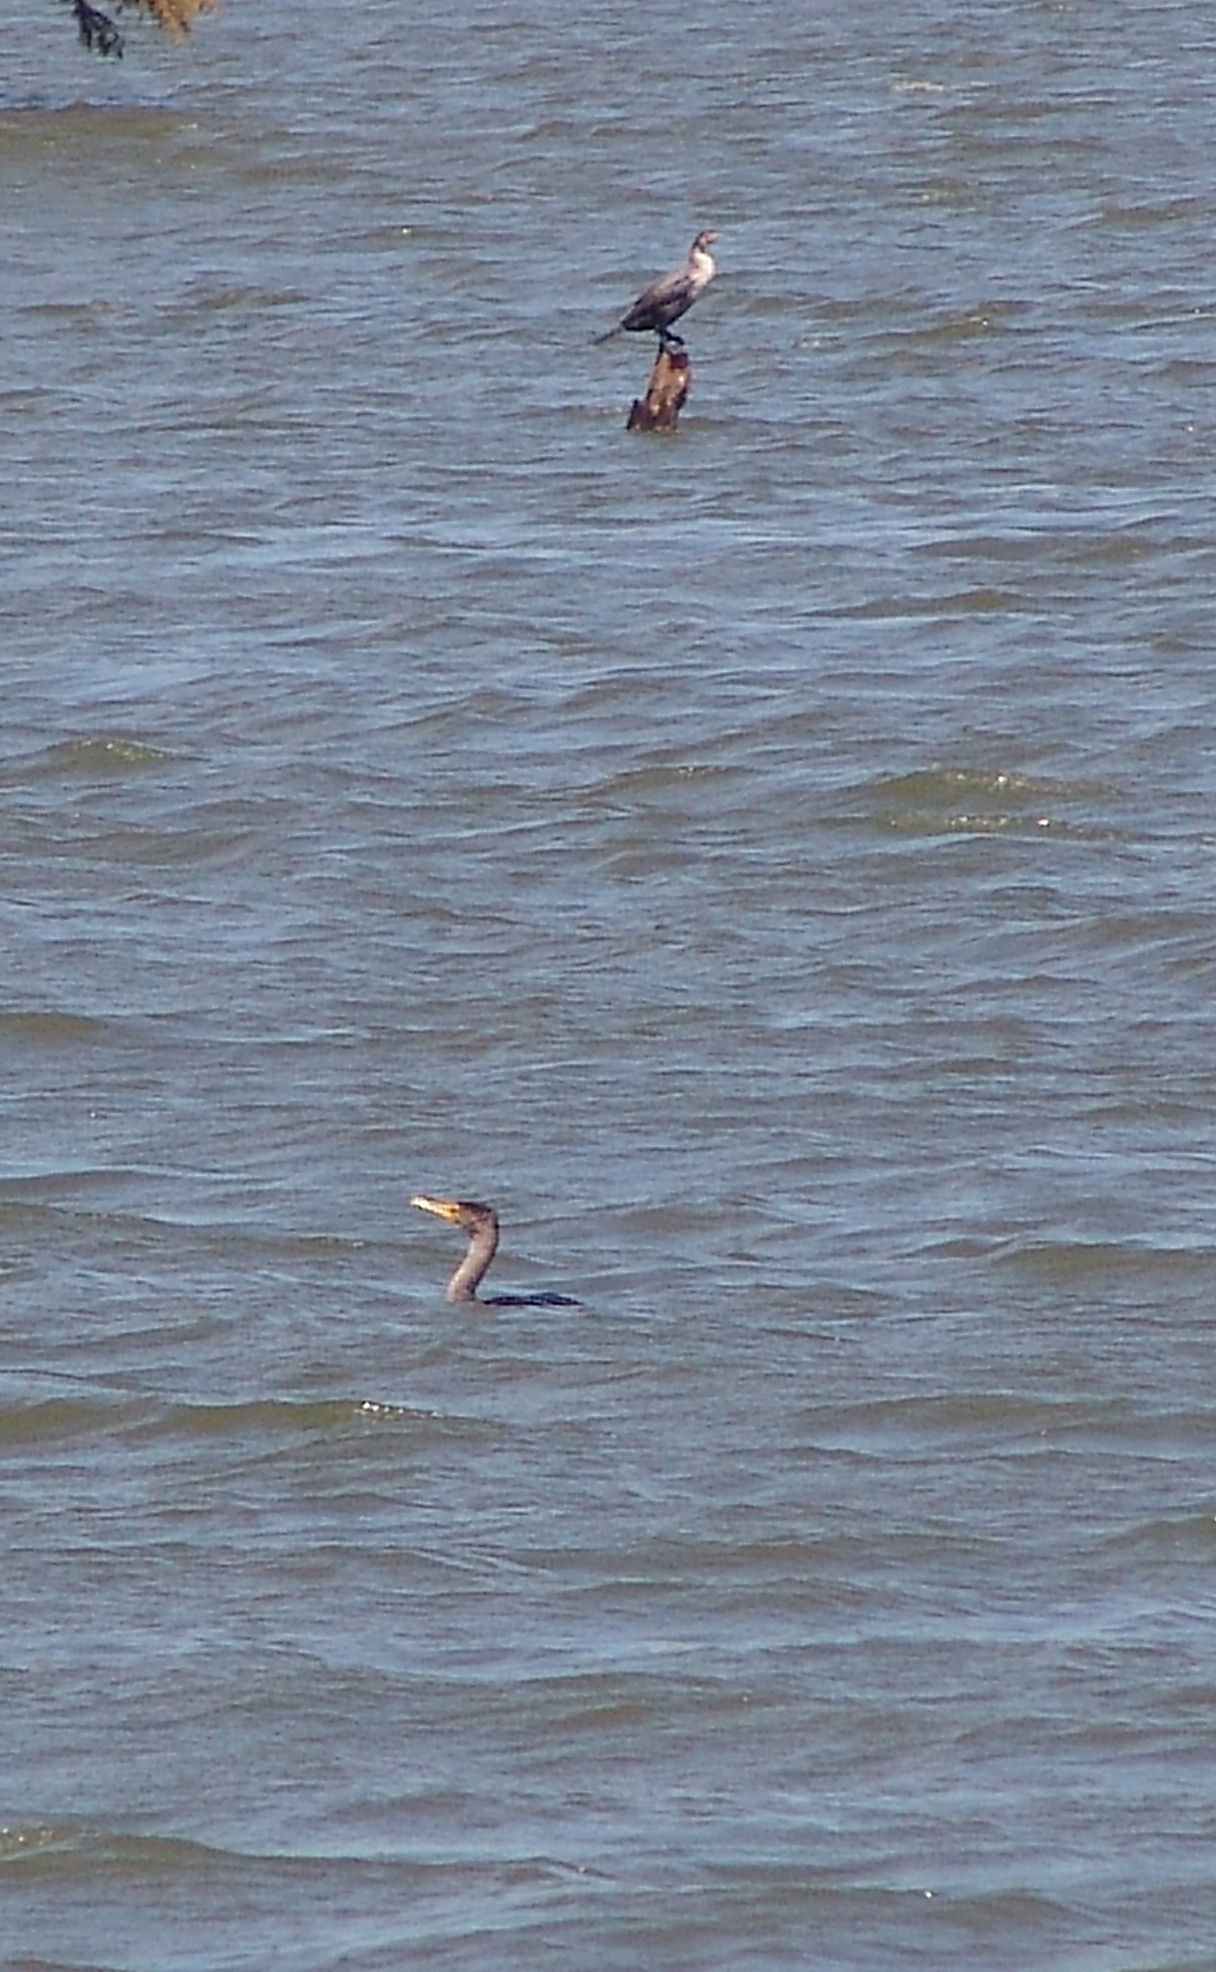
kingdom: Animalia
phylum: Chordata
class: Aves
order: Suliformes
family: Phalacrocoracidae
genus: Phalacrocorax
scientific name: Phalacrocorax auritus
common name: Double-crested cormorant
